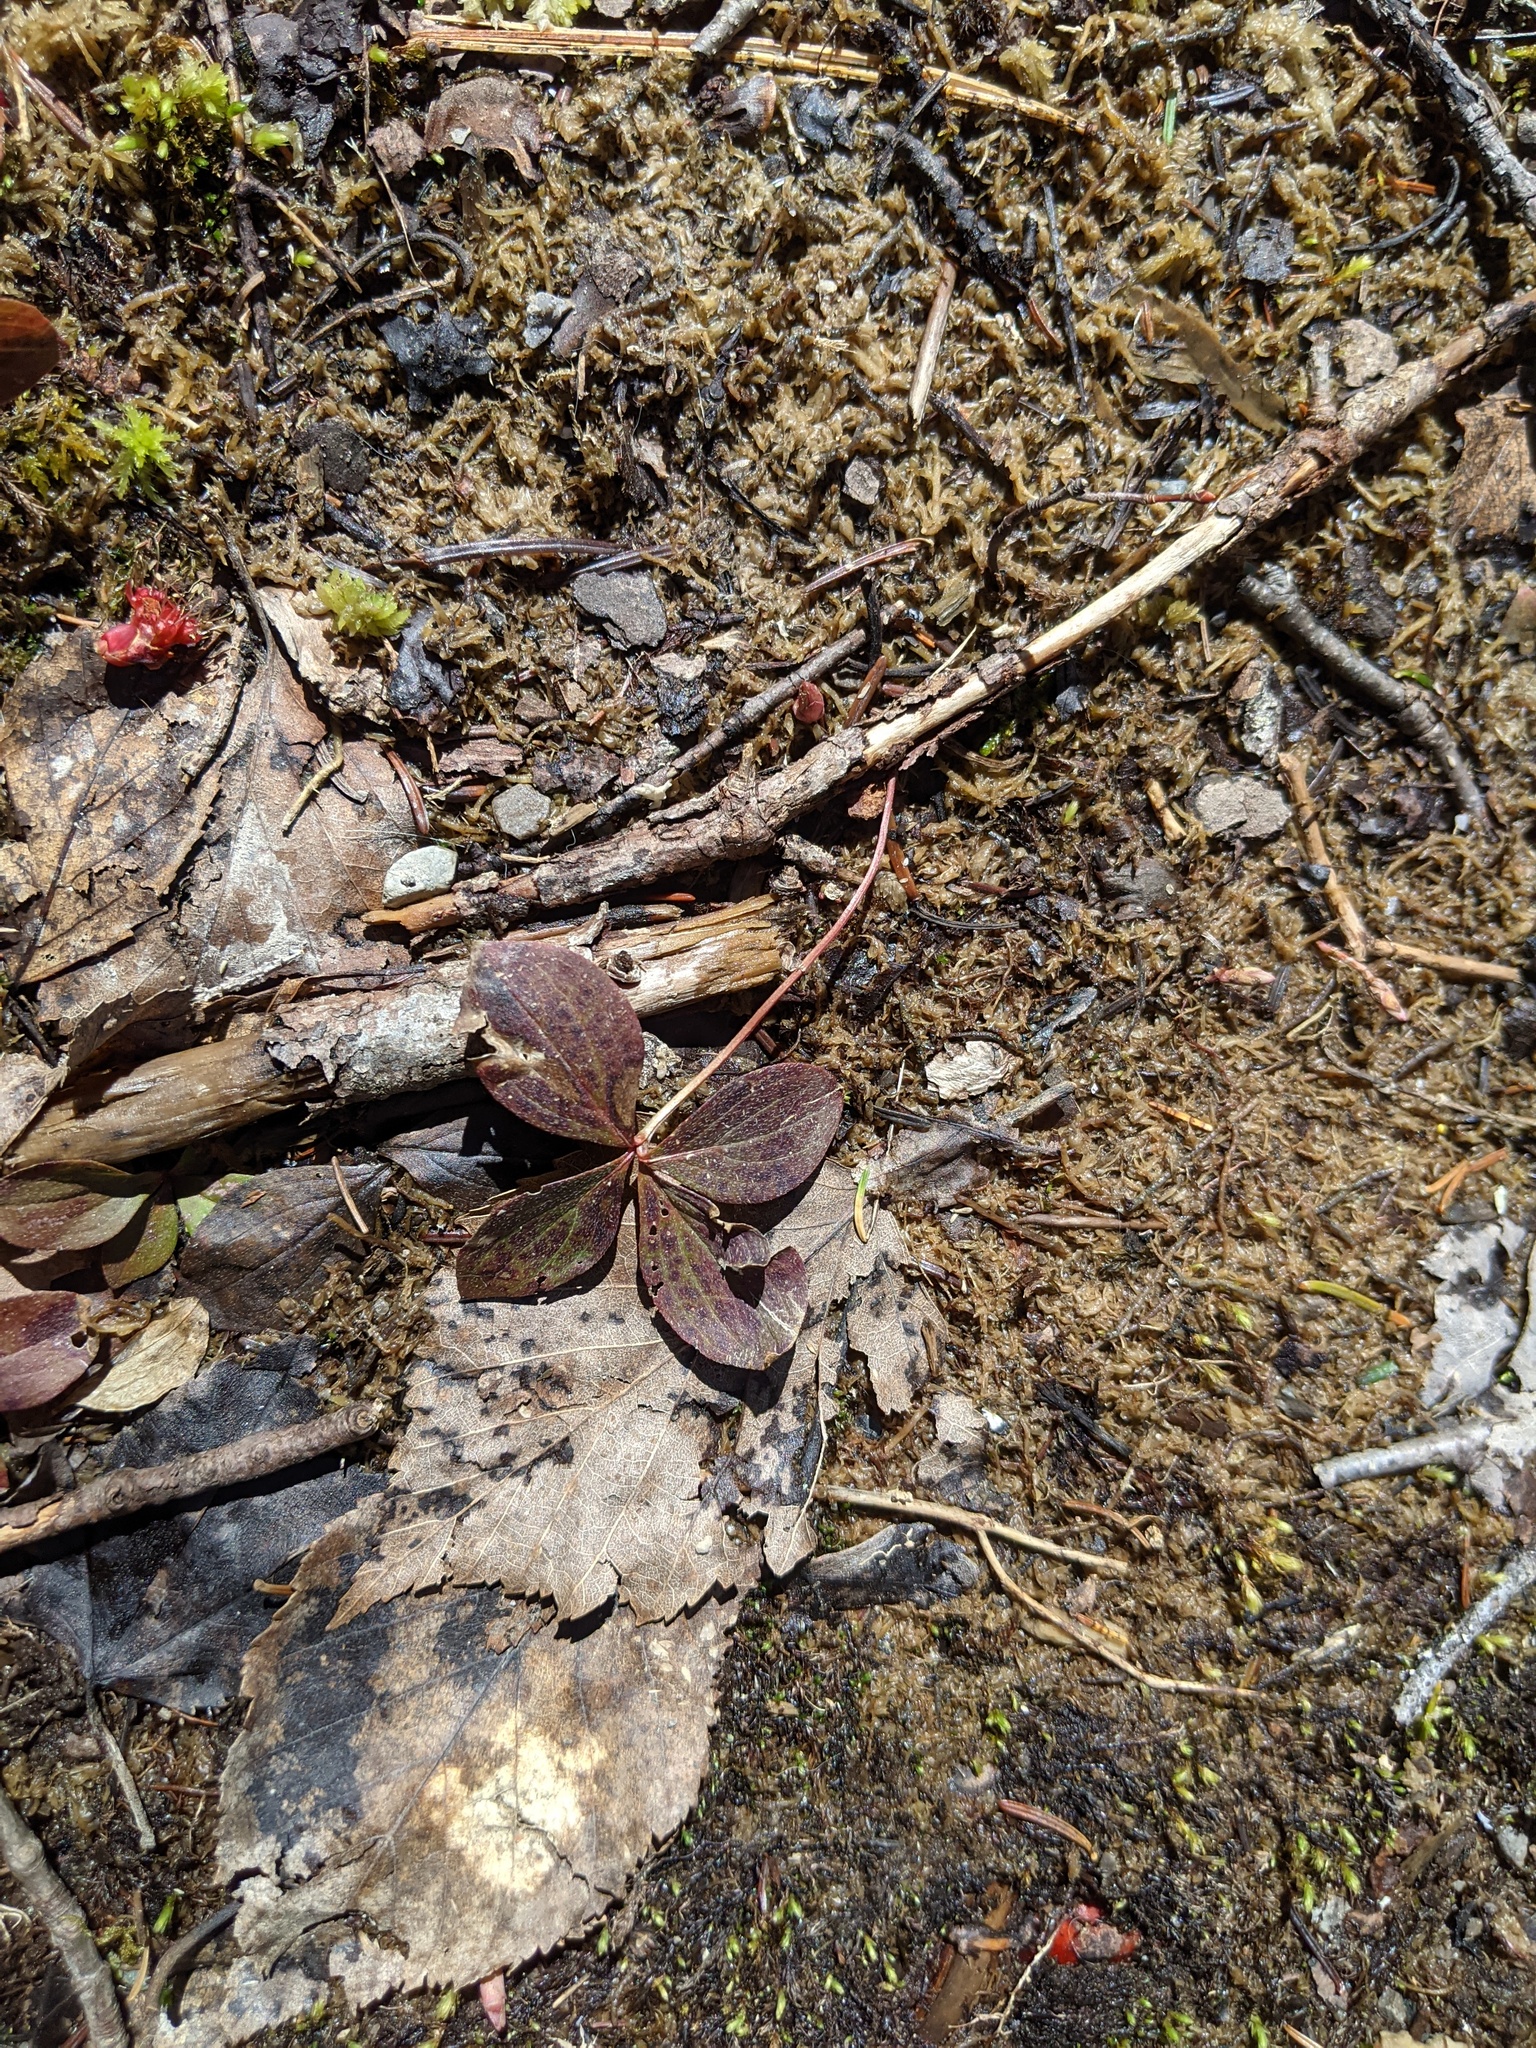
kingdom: Plantae
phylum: Tracheophyta
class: Magnoliopsida
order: Cornales
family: Cornaceae
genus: Cornus
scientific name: Cornus canadensis
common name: Creeping dogwood
